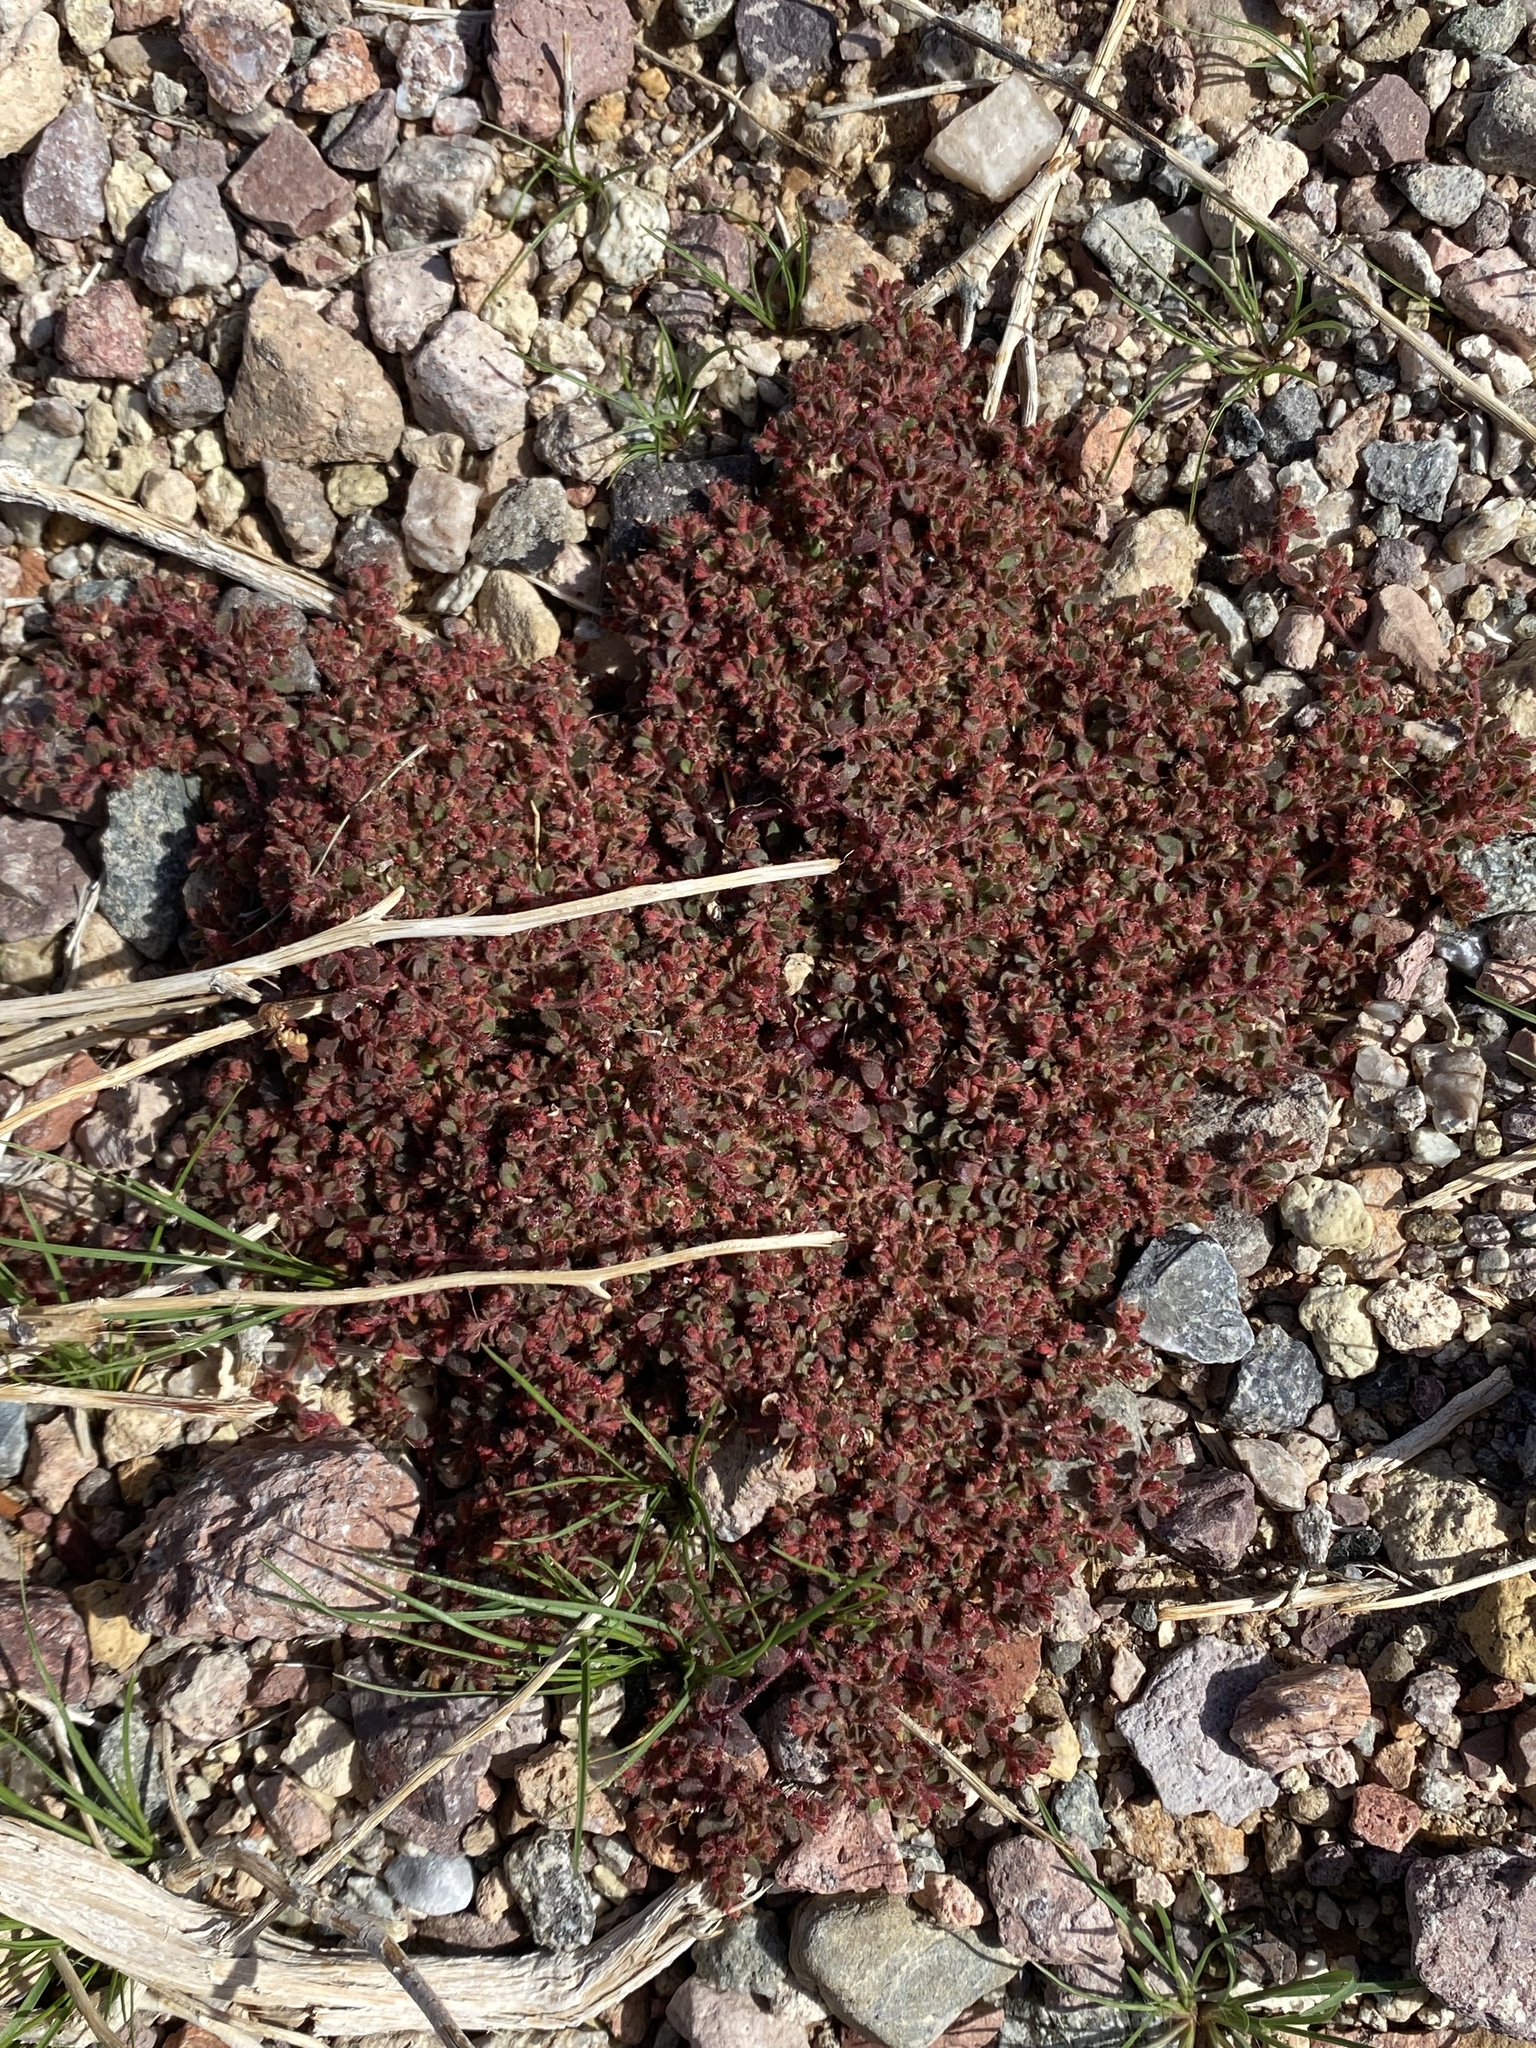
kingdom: Plantae
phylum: Tracheophyta
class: Magnoliopsida
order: Malpighiales
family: Euphorbiaceae
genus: Euphorbia
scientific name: Euphorbia setiloba
